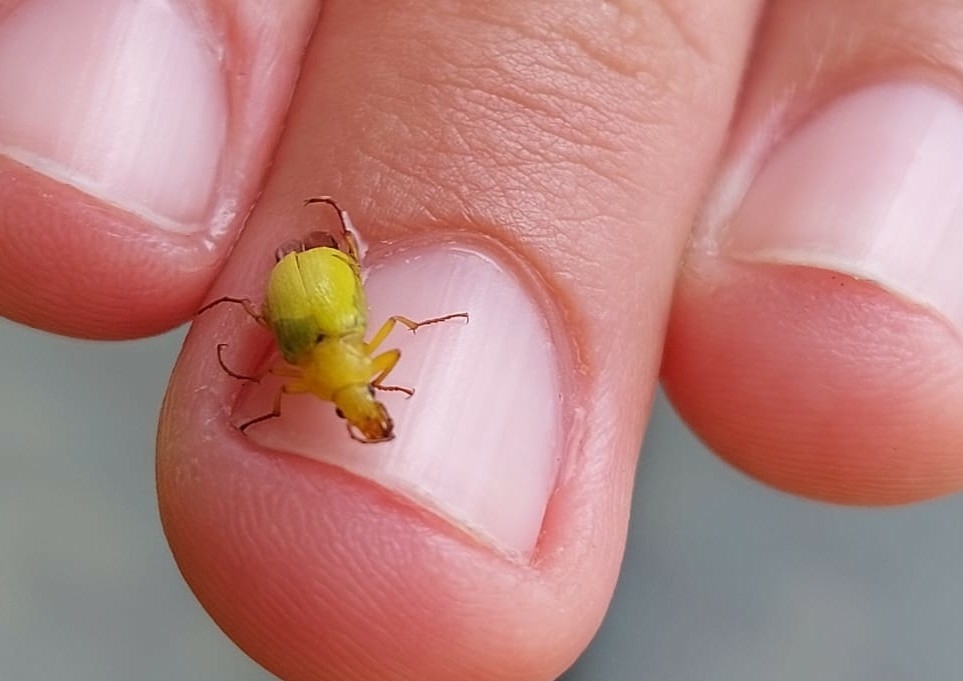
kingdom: Animalia
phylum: Arthropoda
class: Insecta
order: Coleoptera
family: Tenebrionidae
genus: Cteniopus
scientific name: Cteniopus sulphureus
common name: Sulphur beetle
